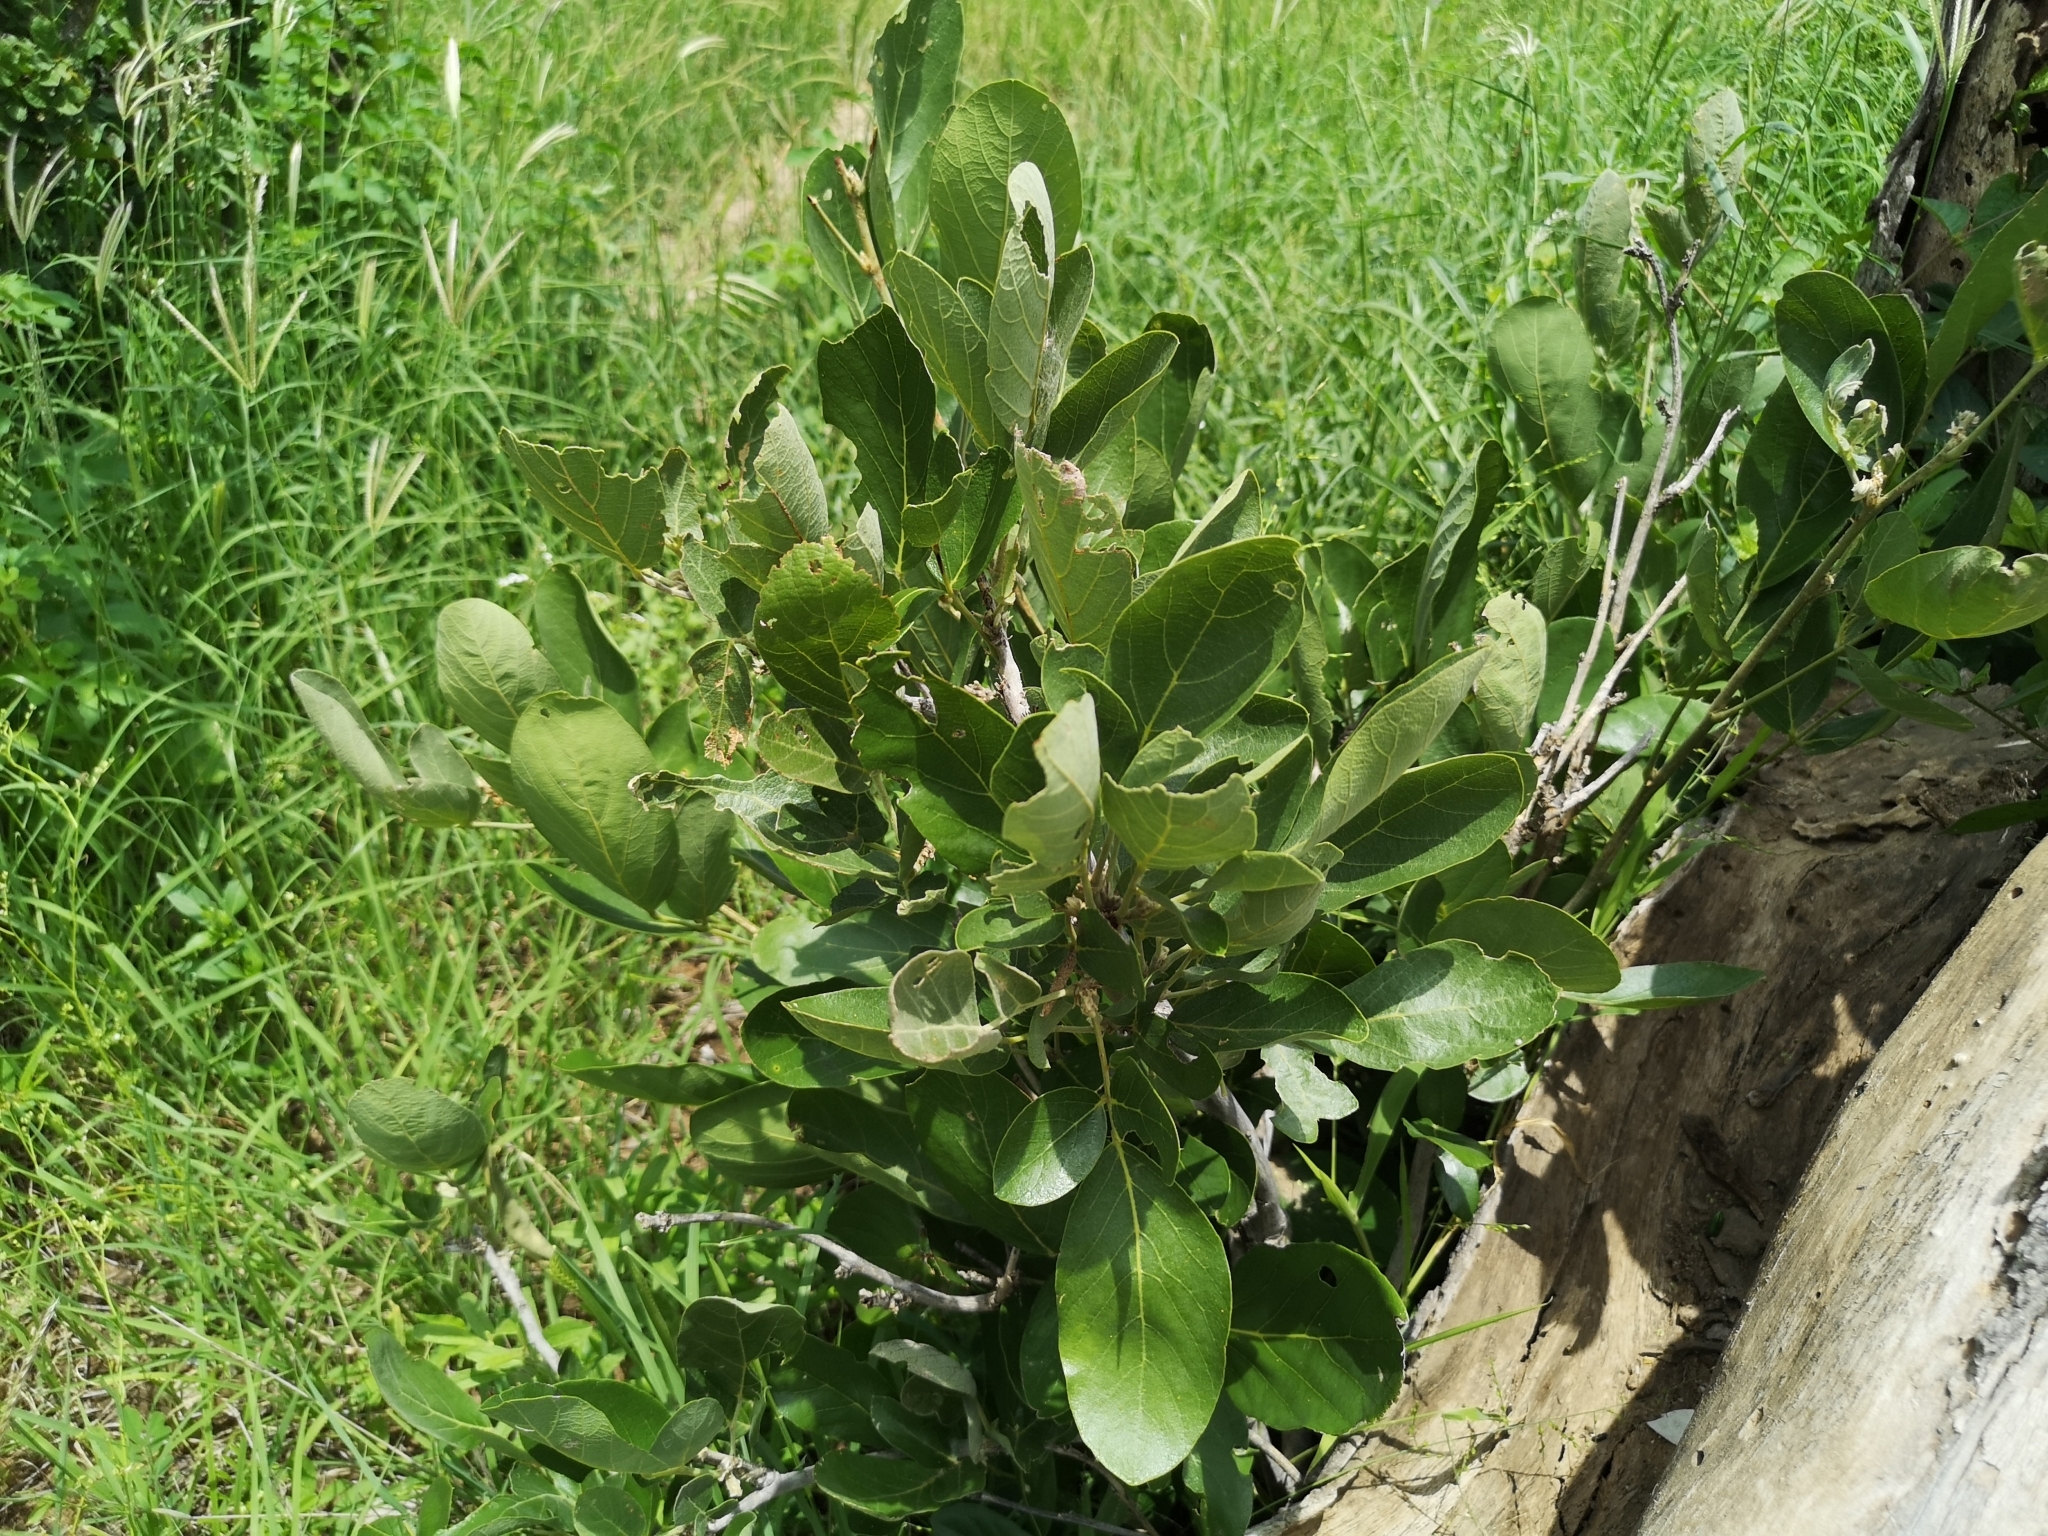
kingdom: Plantae
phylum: Tracheophyta
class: Magnoliopsida
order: Fabales
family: Fabaceae
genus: Philenoptera
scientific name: Philenoptera violacea
